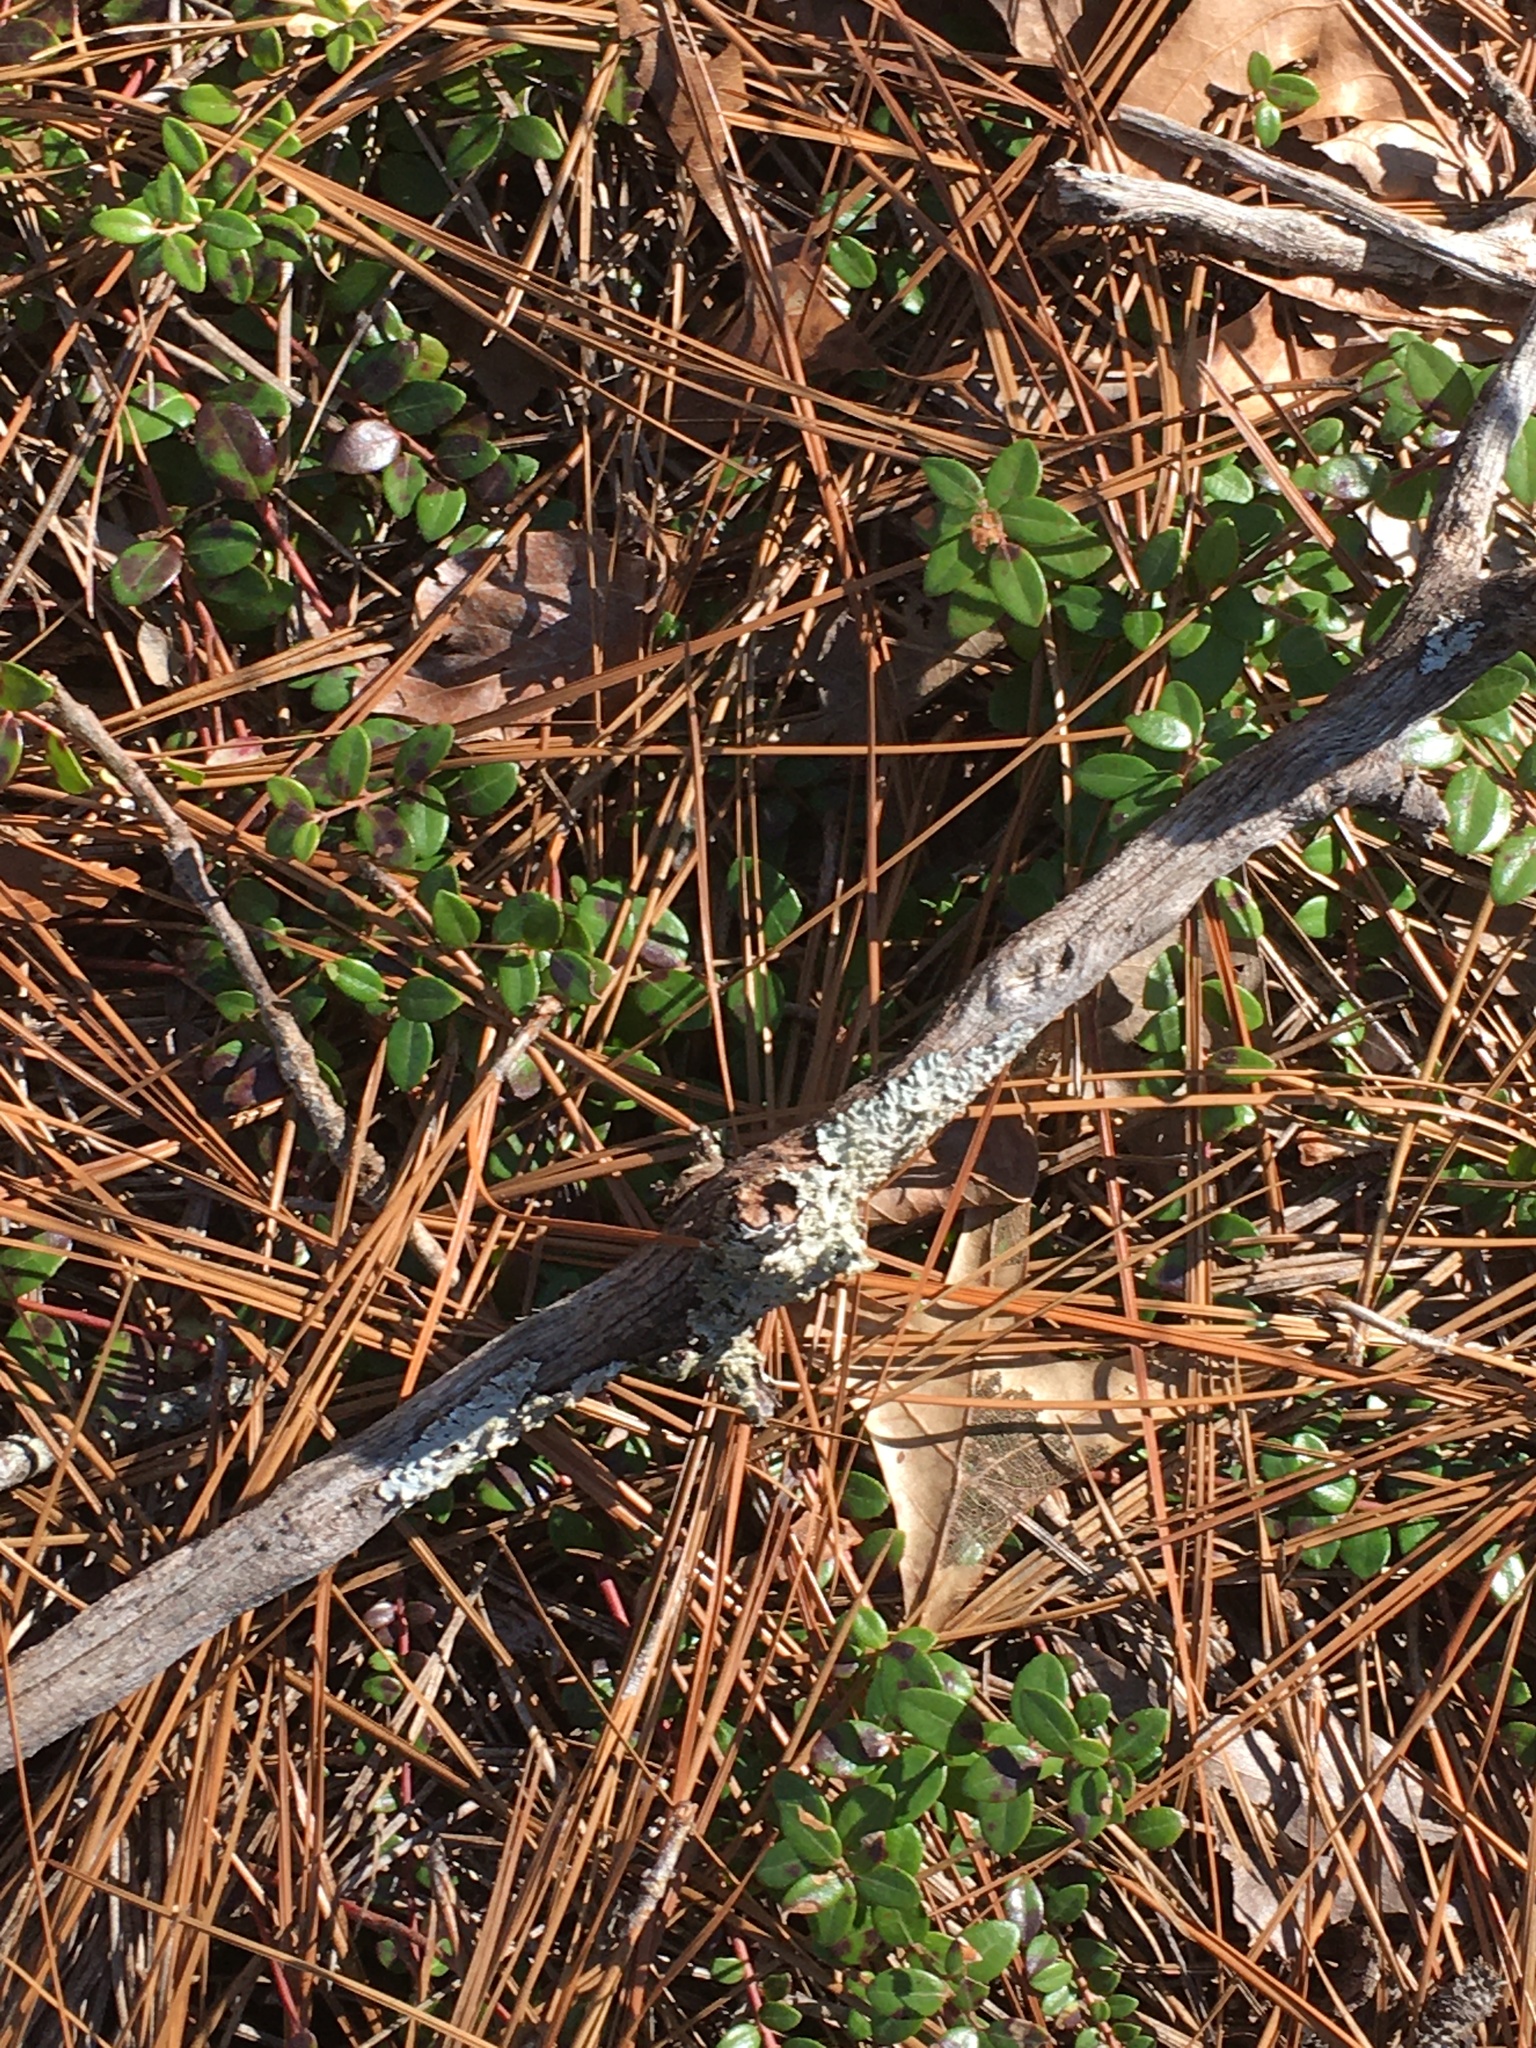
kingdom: Plantae
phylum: Tracheophyta
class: Magnoliopsida
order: Ericales
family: Ericaceae
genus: Vaccinium
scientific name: Vaccinium crassifolium
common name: Creeping blueberry
